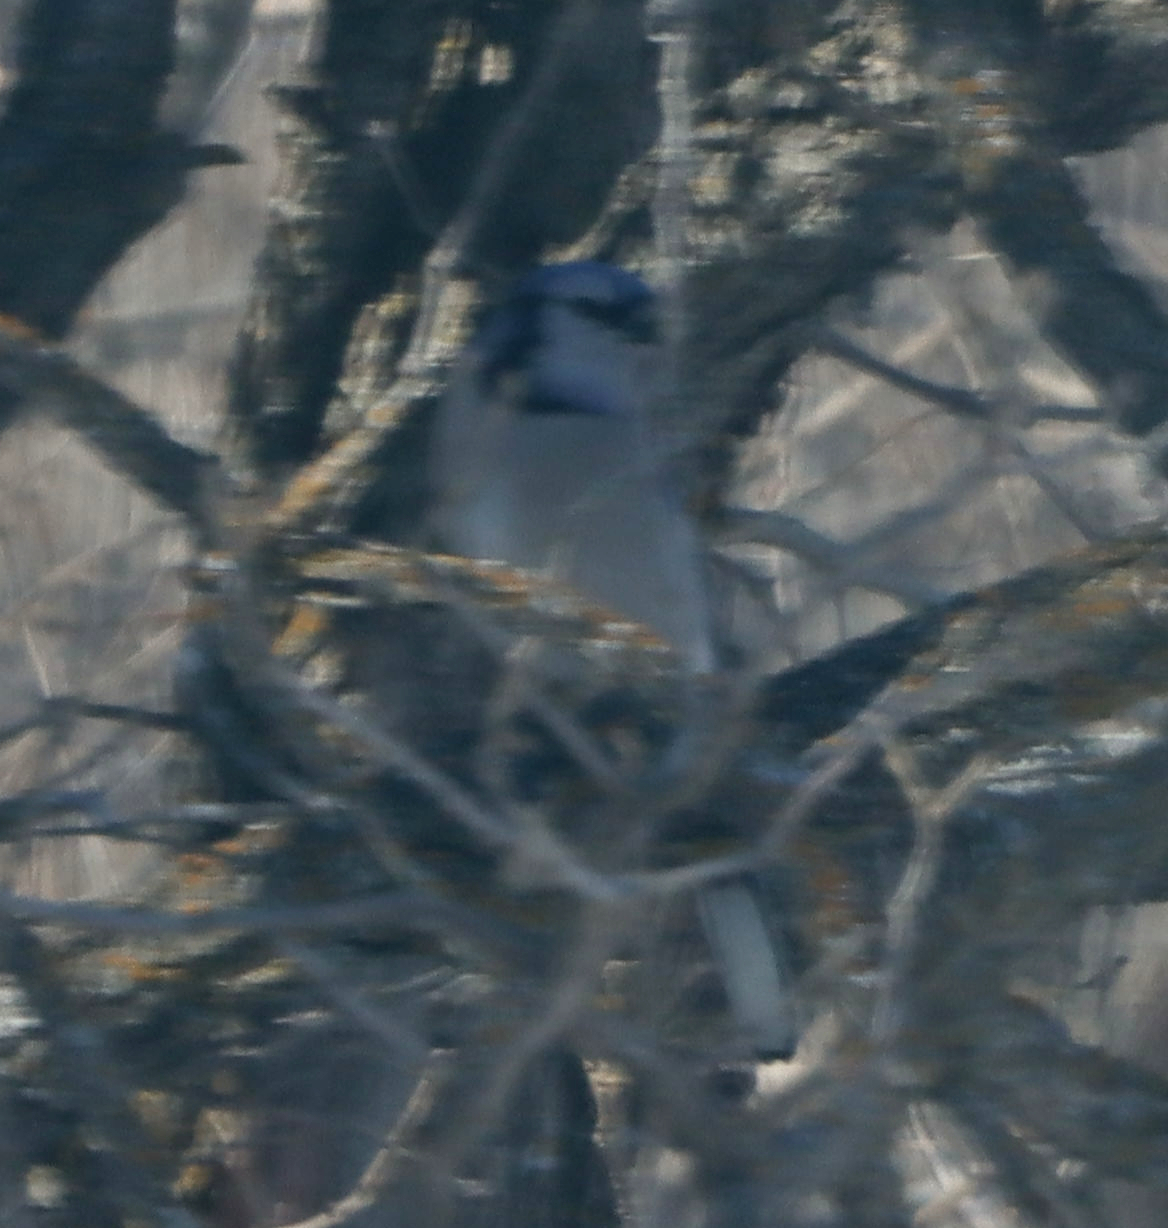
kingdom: Animalia
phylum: Chordata
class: Aves
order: Passeriformes
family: Corvidae
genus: Cyanocitta
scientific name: Cyanocitta cristata
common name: Blue jay
